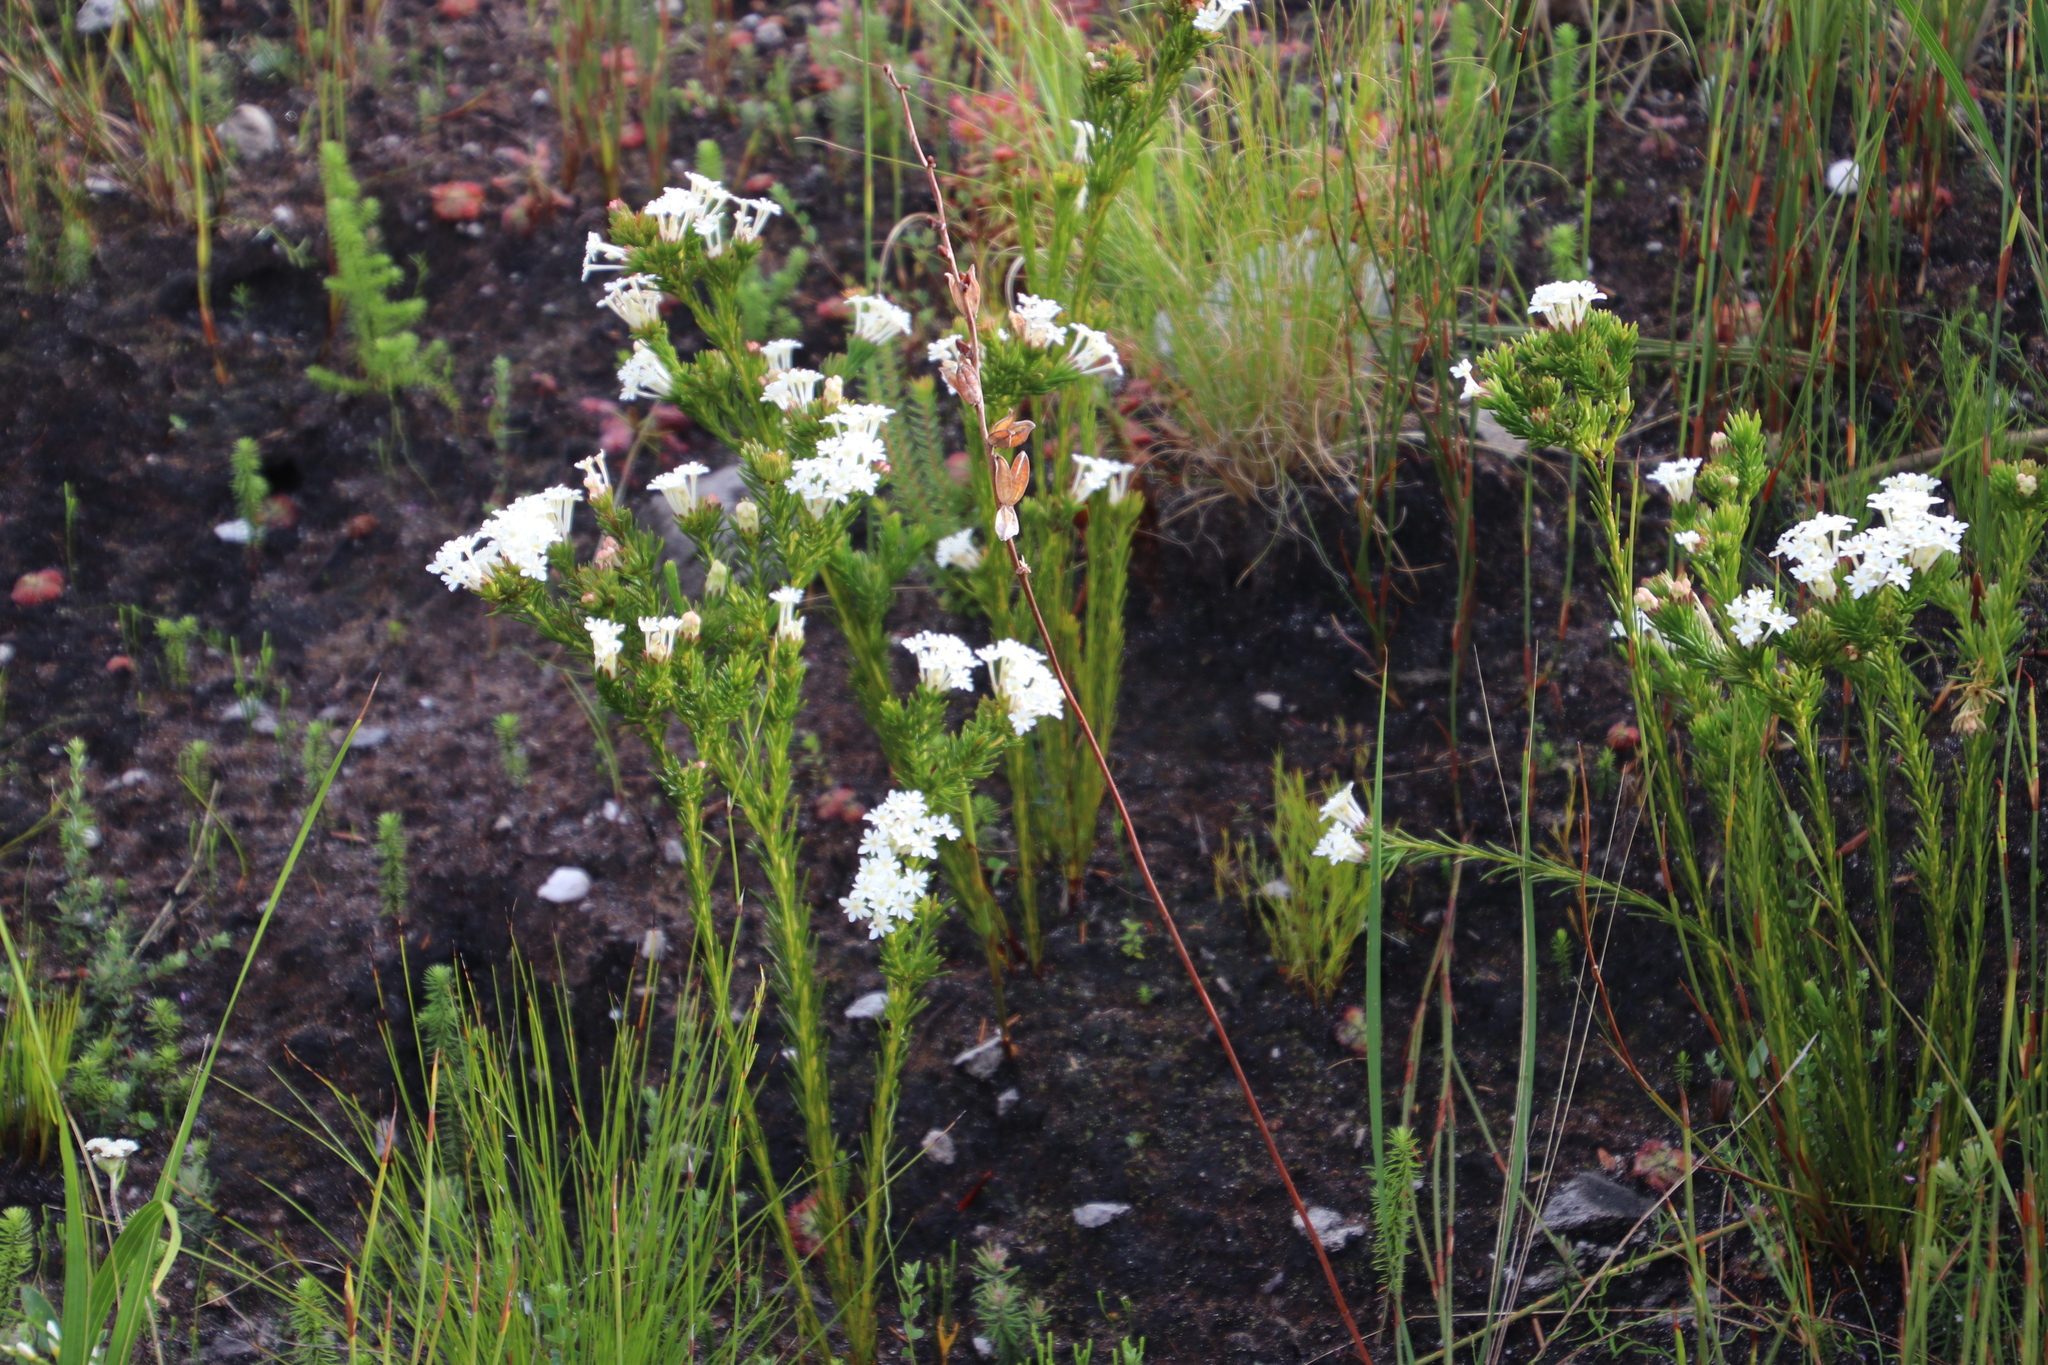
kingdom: Plantae
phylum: Tracheophyta
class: Magnoliopsida
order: Malvales
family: Thymelaeaceae
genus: Gnidia
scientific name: Gnidia pinifolia
